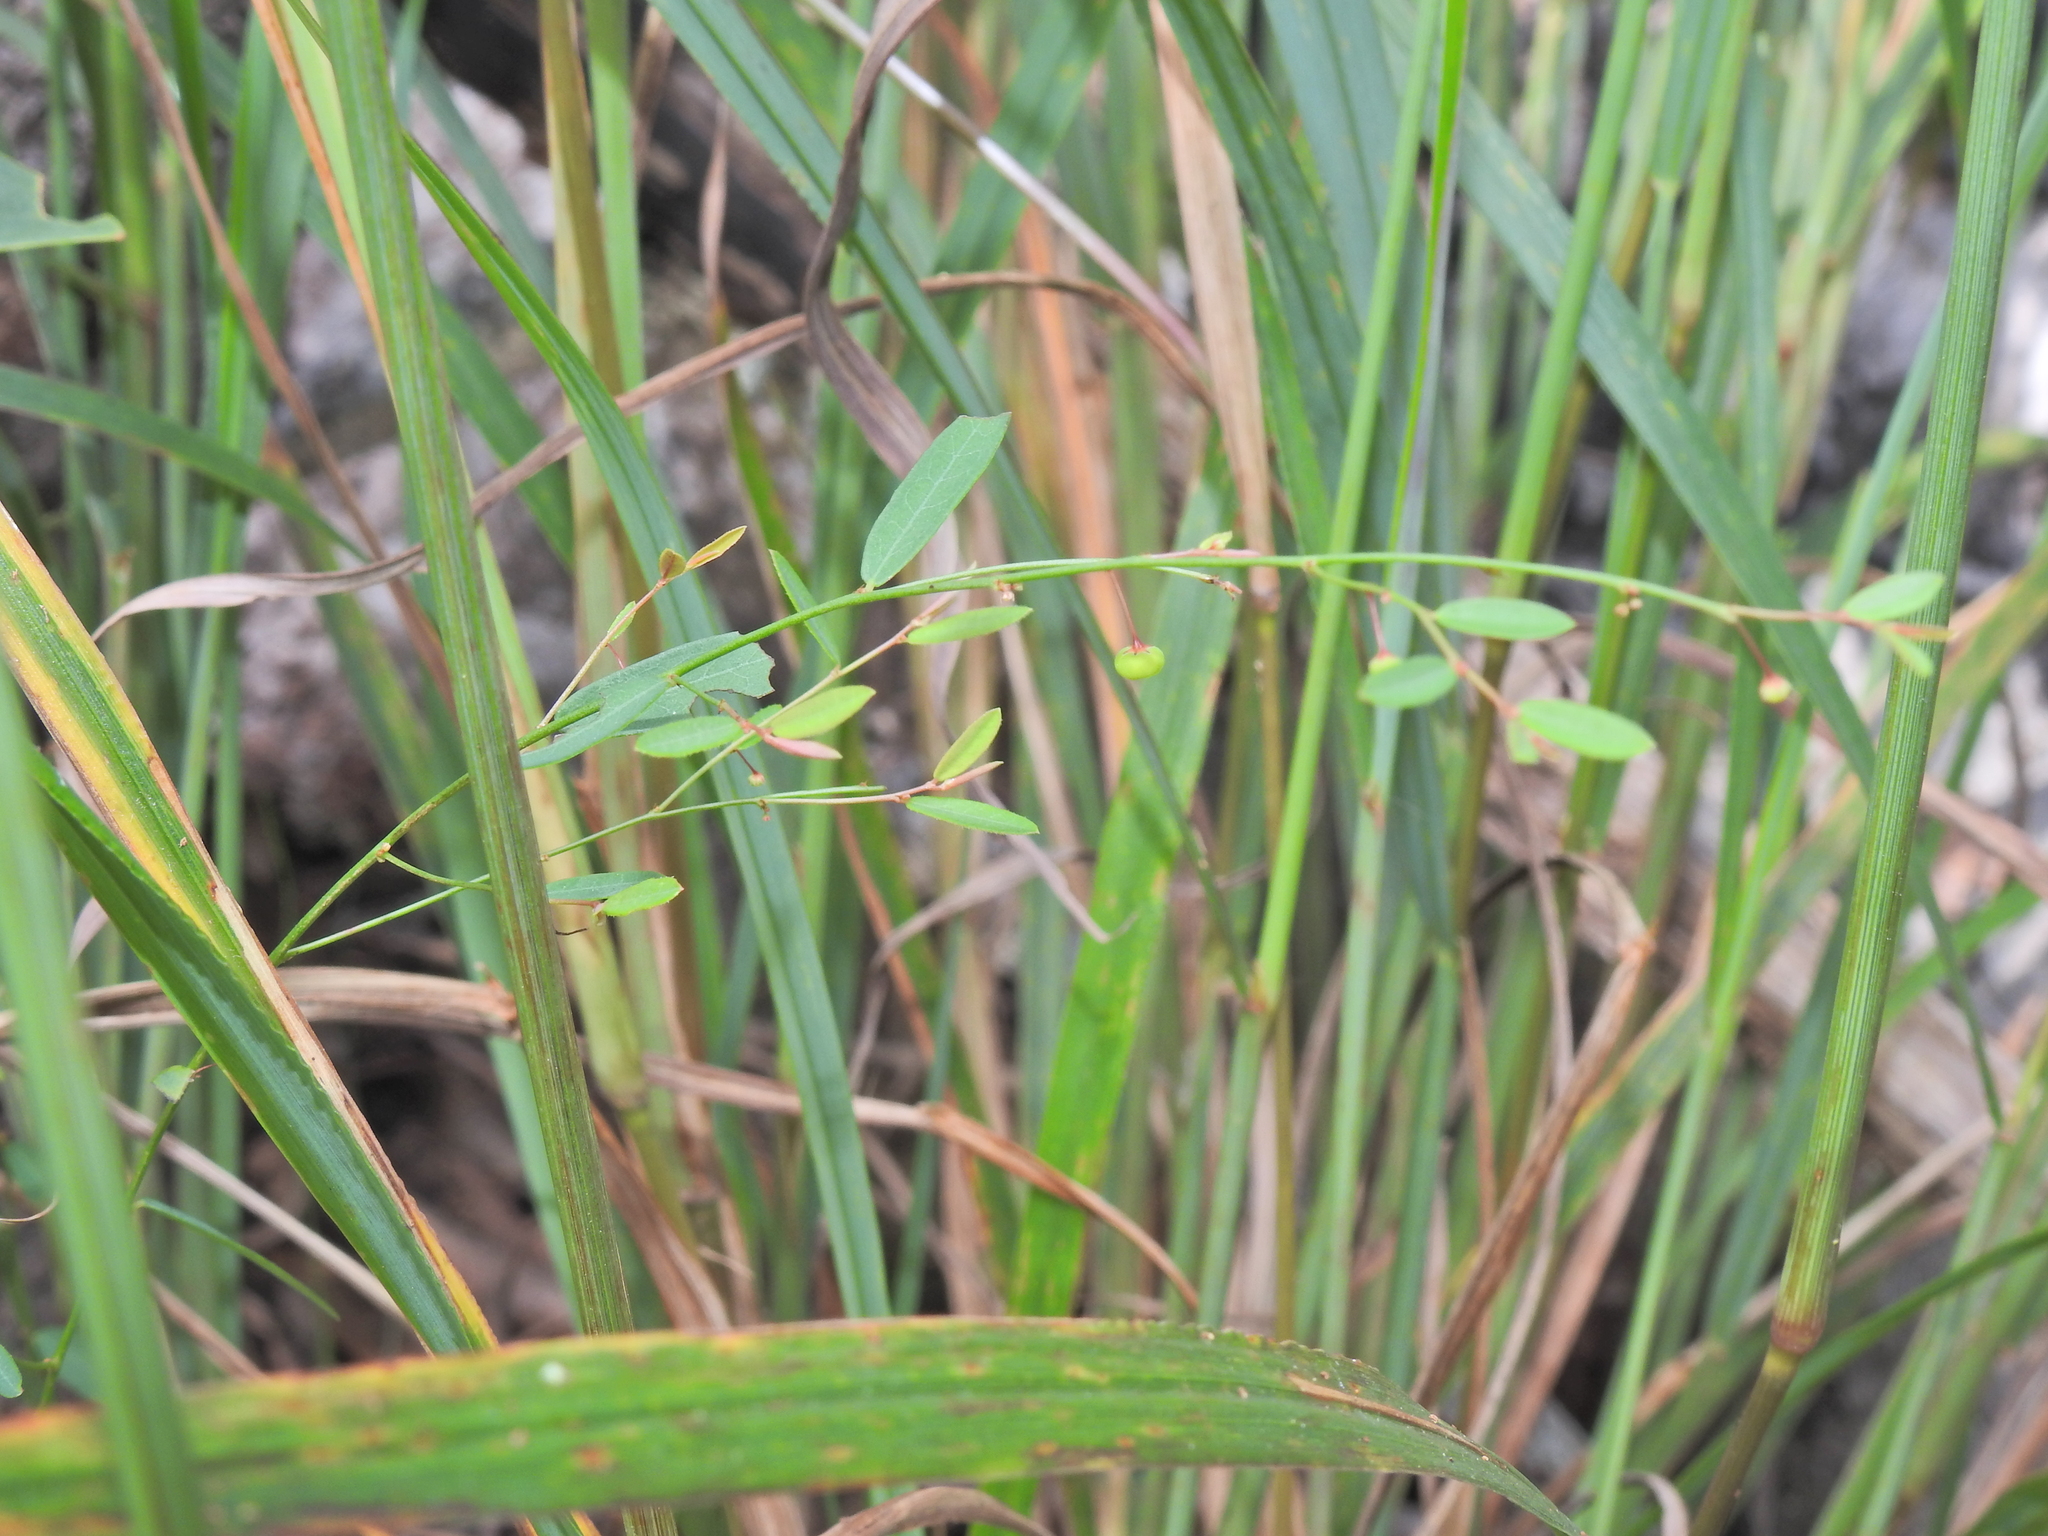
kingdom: Plantae
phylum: Tracheophyta
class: Magnoliopsida
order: Malpighiales
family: Phyllanthaceae
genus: Phyllanthus
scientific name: Phyllanthus virgatus
